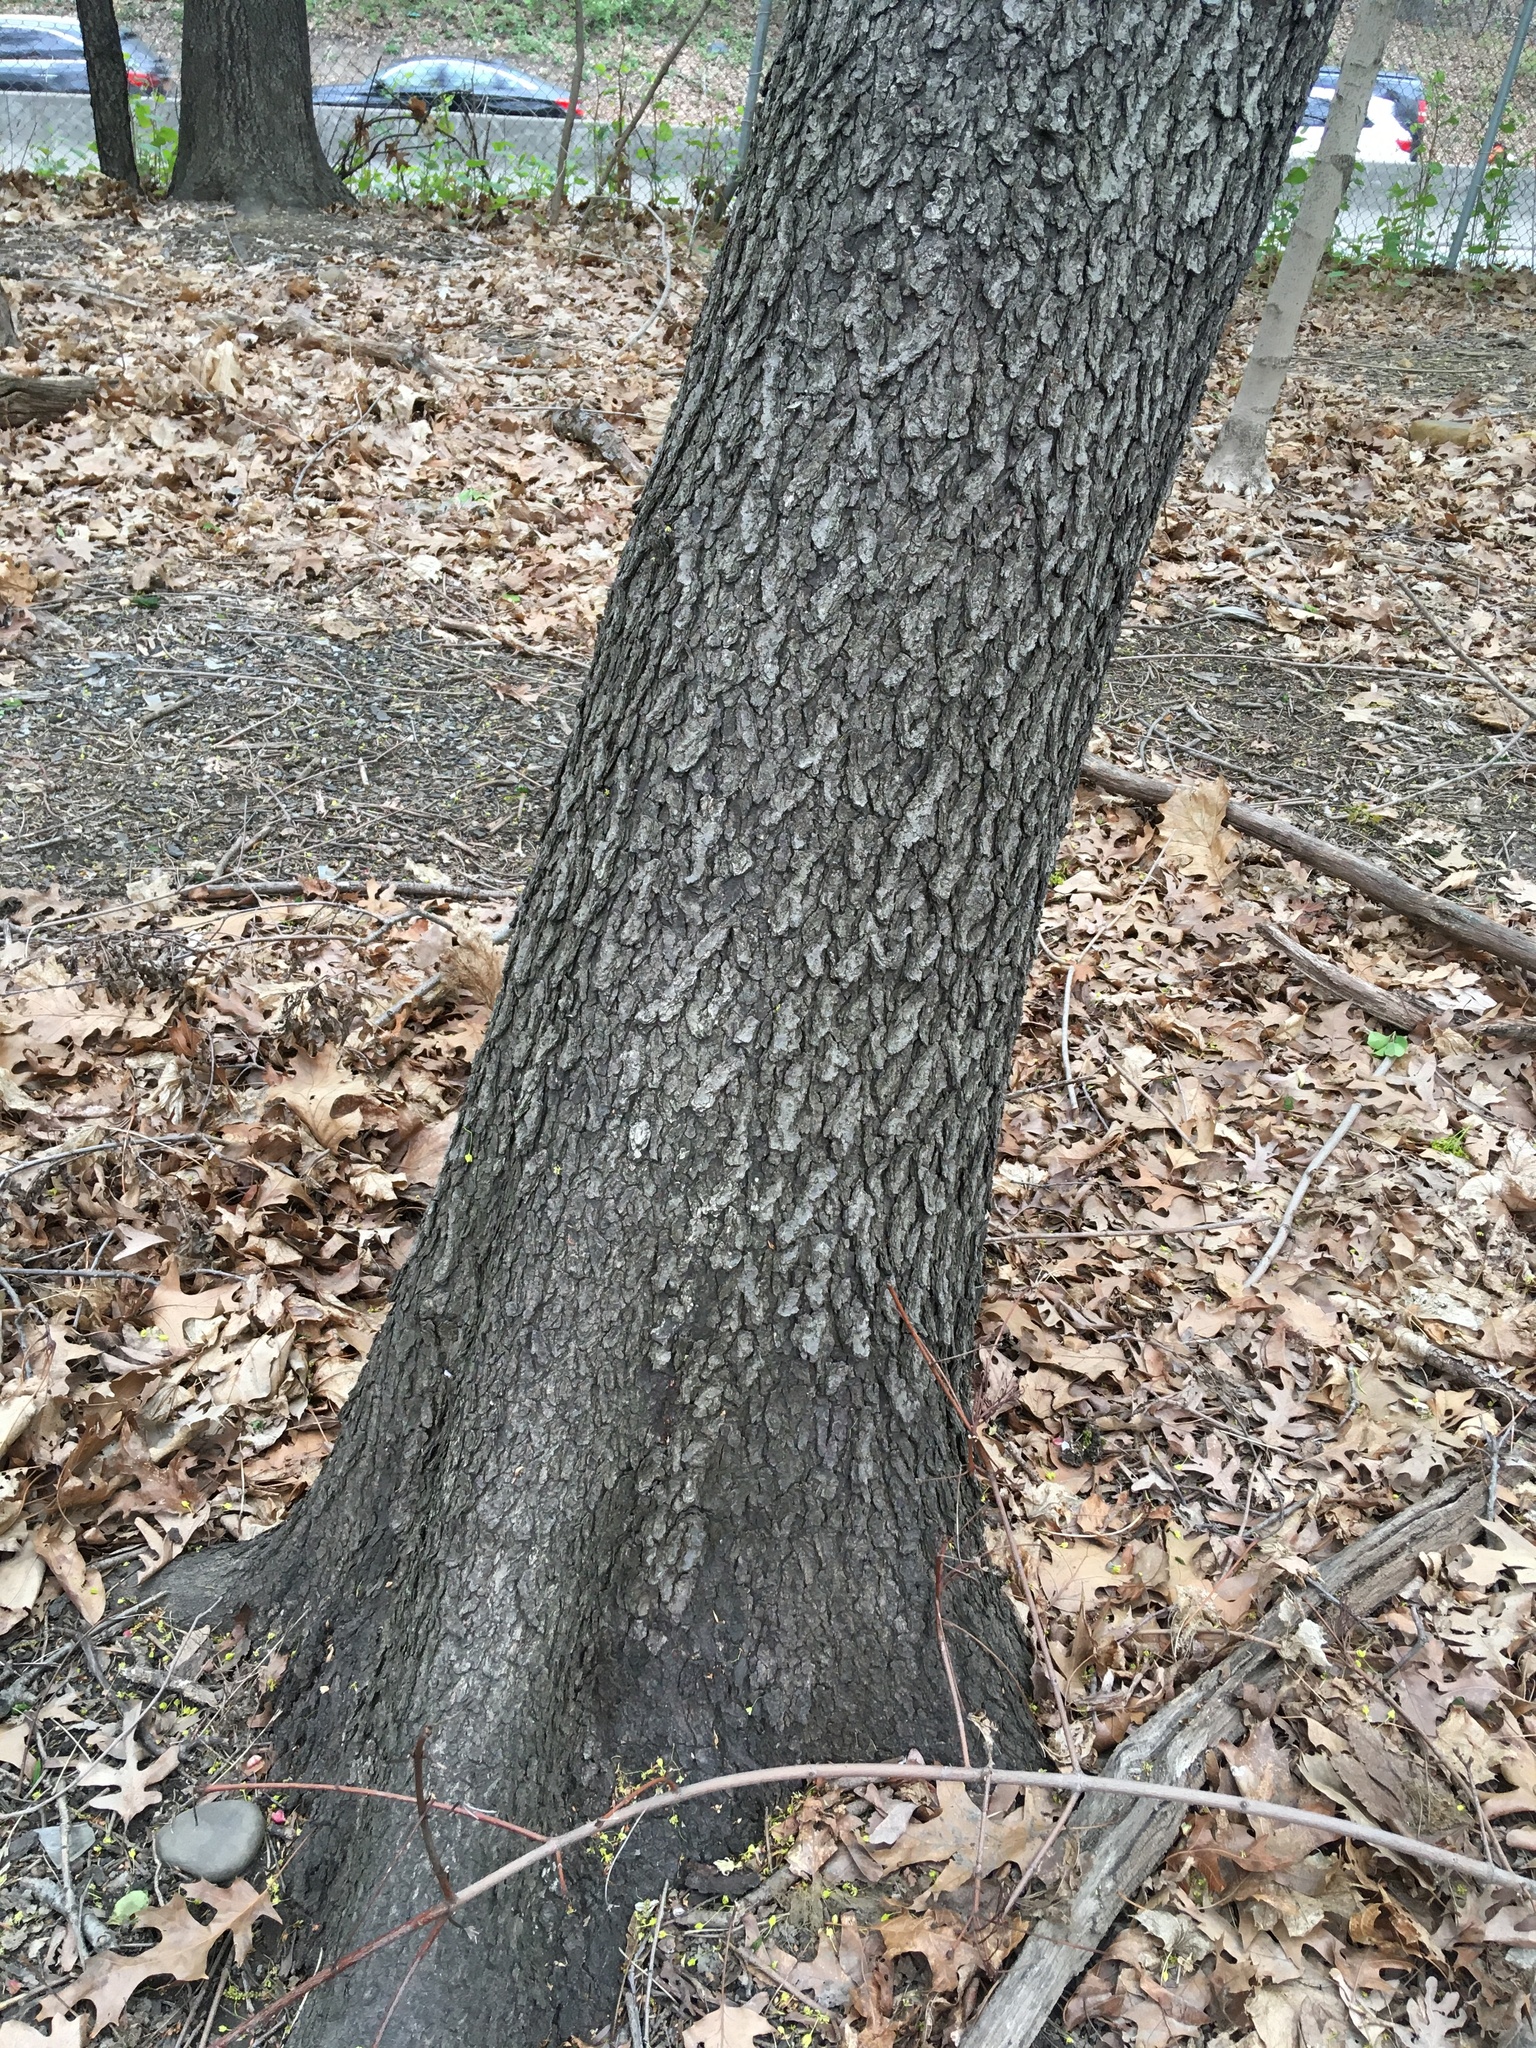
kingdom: Plantae
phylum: Tracheophyta
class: Magnoliopsida
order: Rosales
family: Rosaceae
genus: Prunus
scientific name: Prunus serotina
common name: Black cherry
